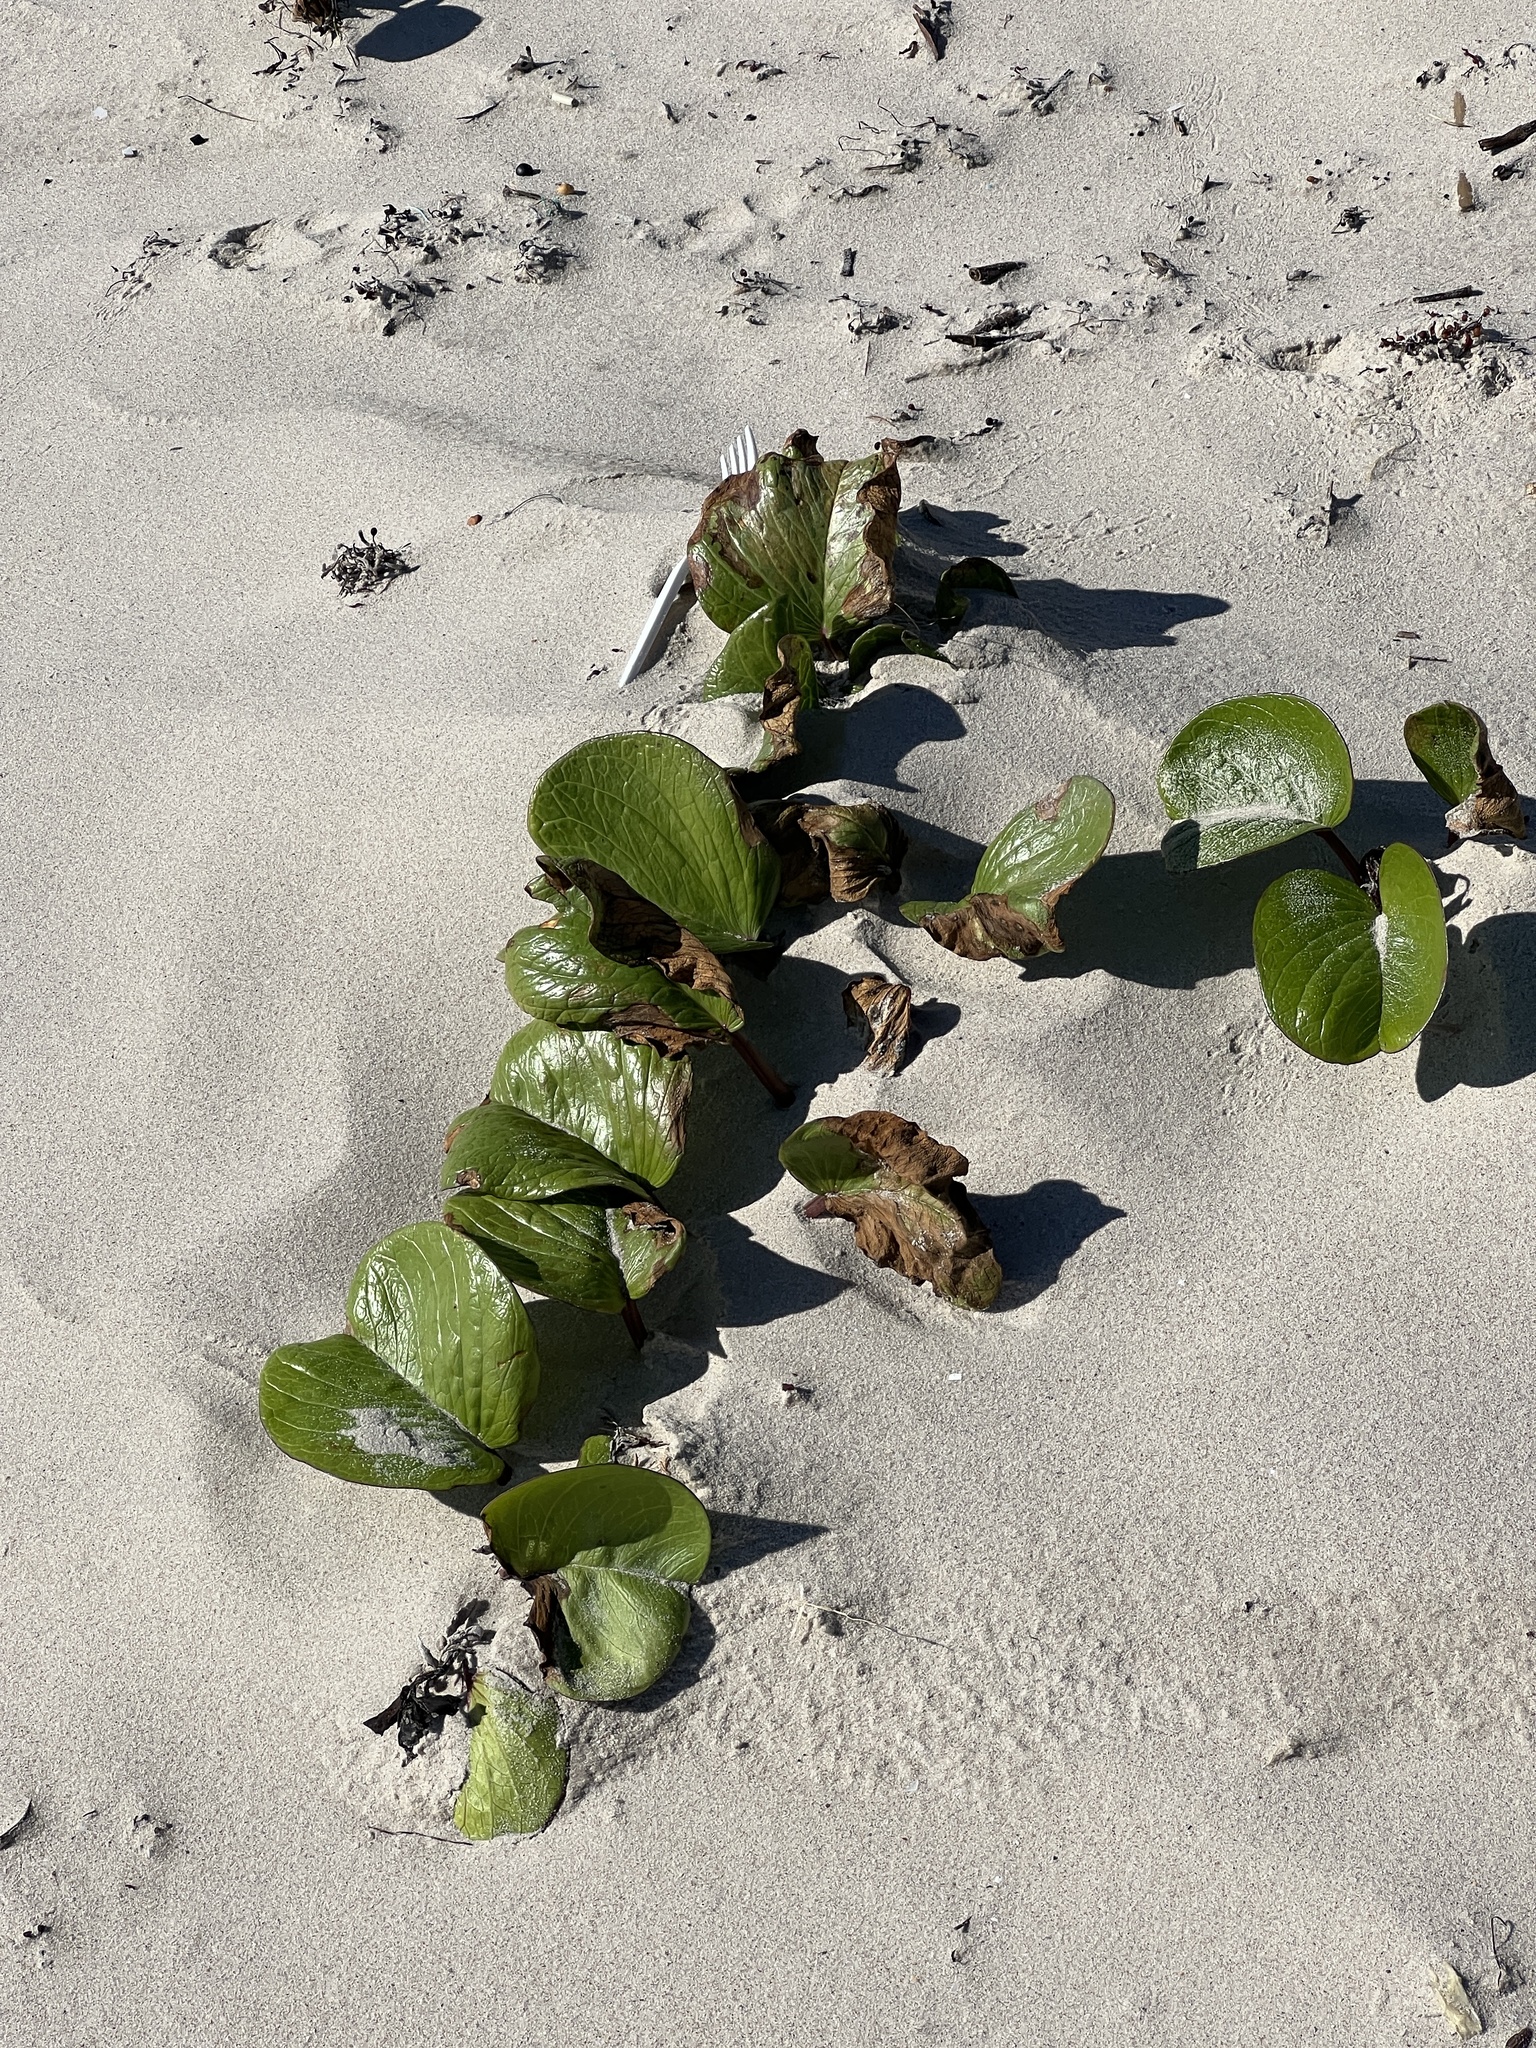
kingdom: Plantae
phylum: Tracheophyta
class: Magnoliopsida
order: Solanales
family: Convolvulaceae
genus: Ipomoea
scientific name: Ipomoea pes-caprae
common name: Beach morning glory
